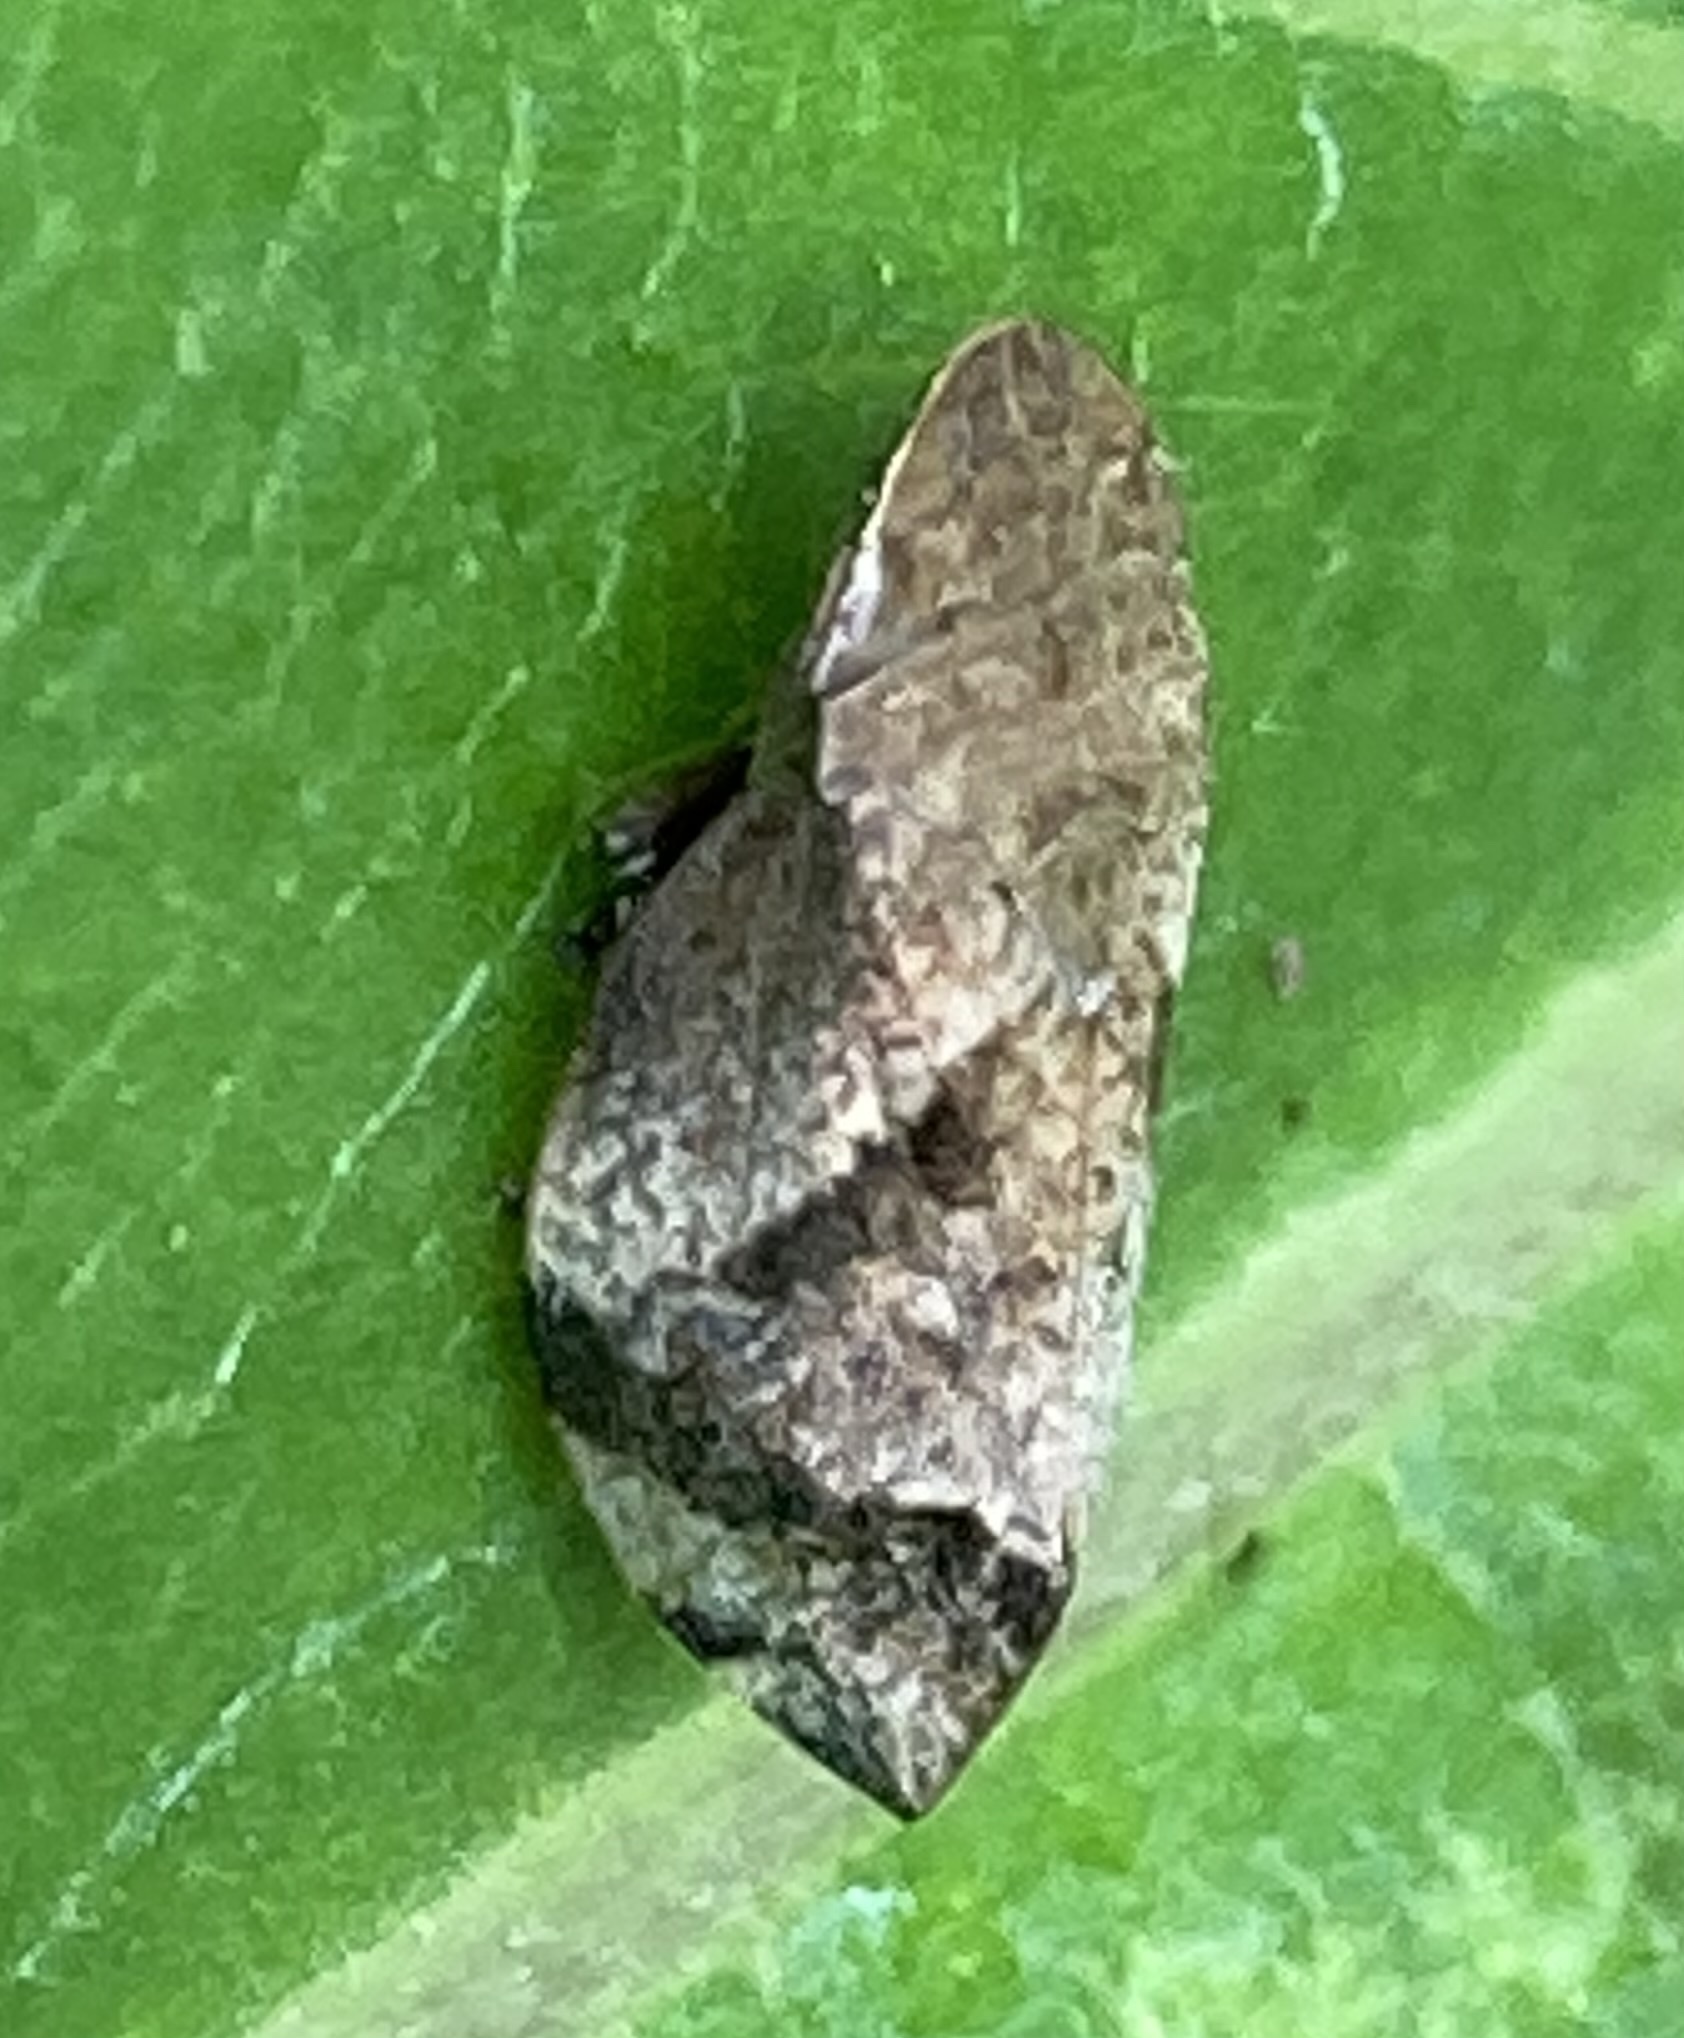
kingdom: Animalia
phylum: Arthropoda
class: Insecta
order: Hemiptera
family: Aphrophoridae
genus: Lepyronia
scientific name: Lepyronia quadrangularis
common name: Diamond-backed spittlebug
